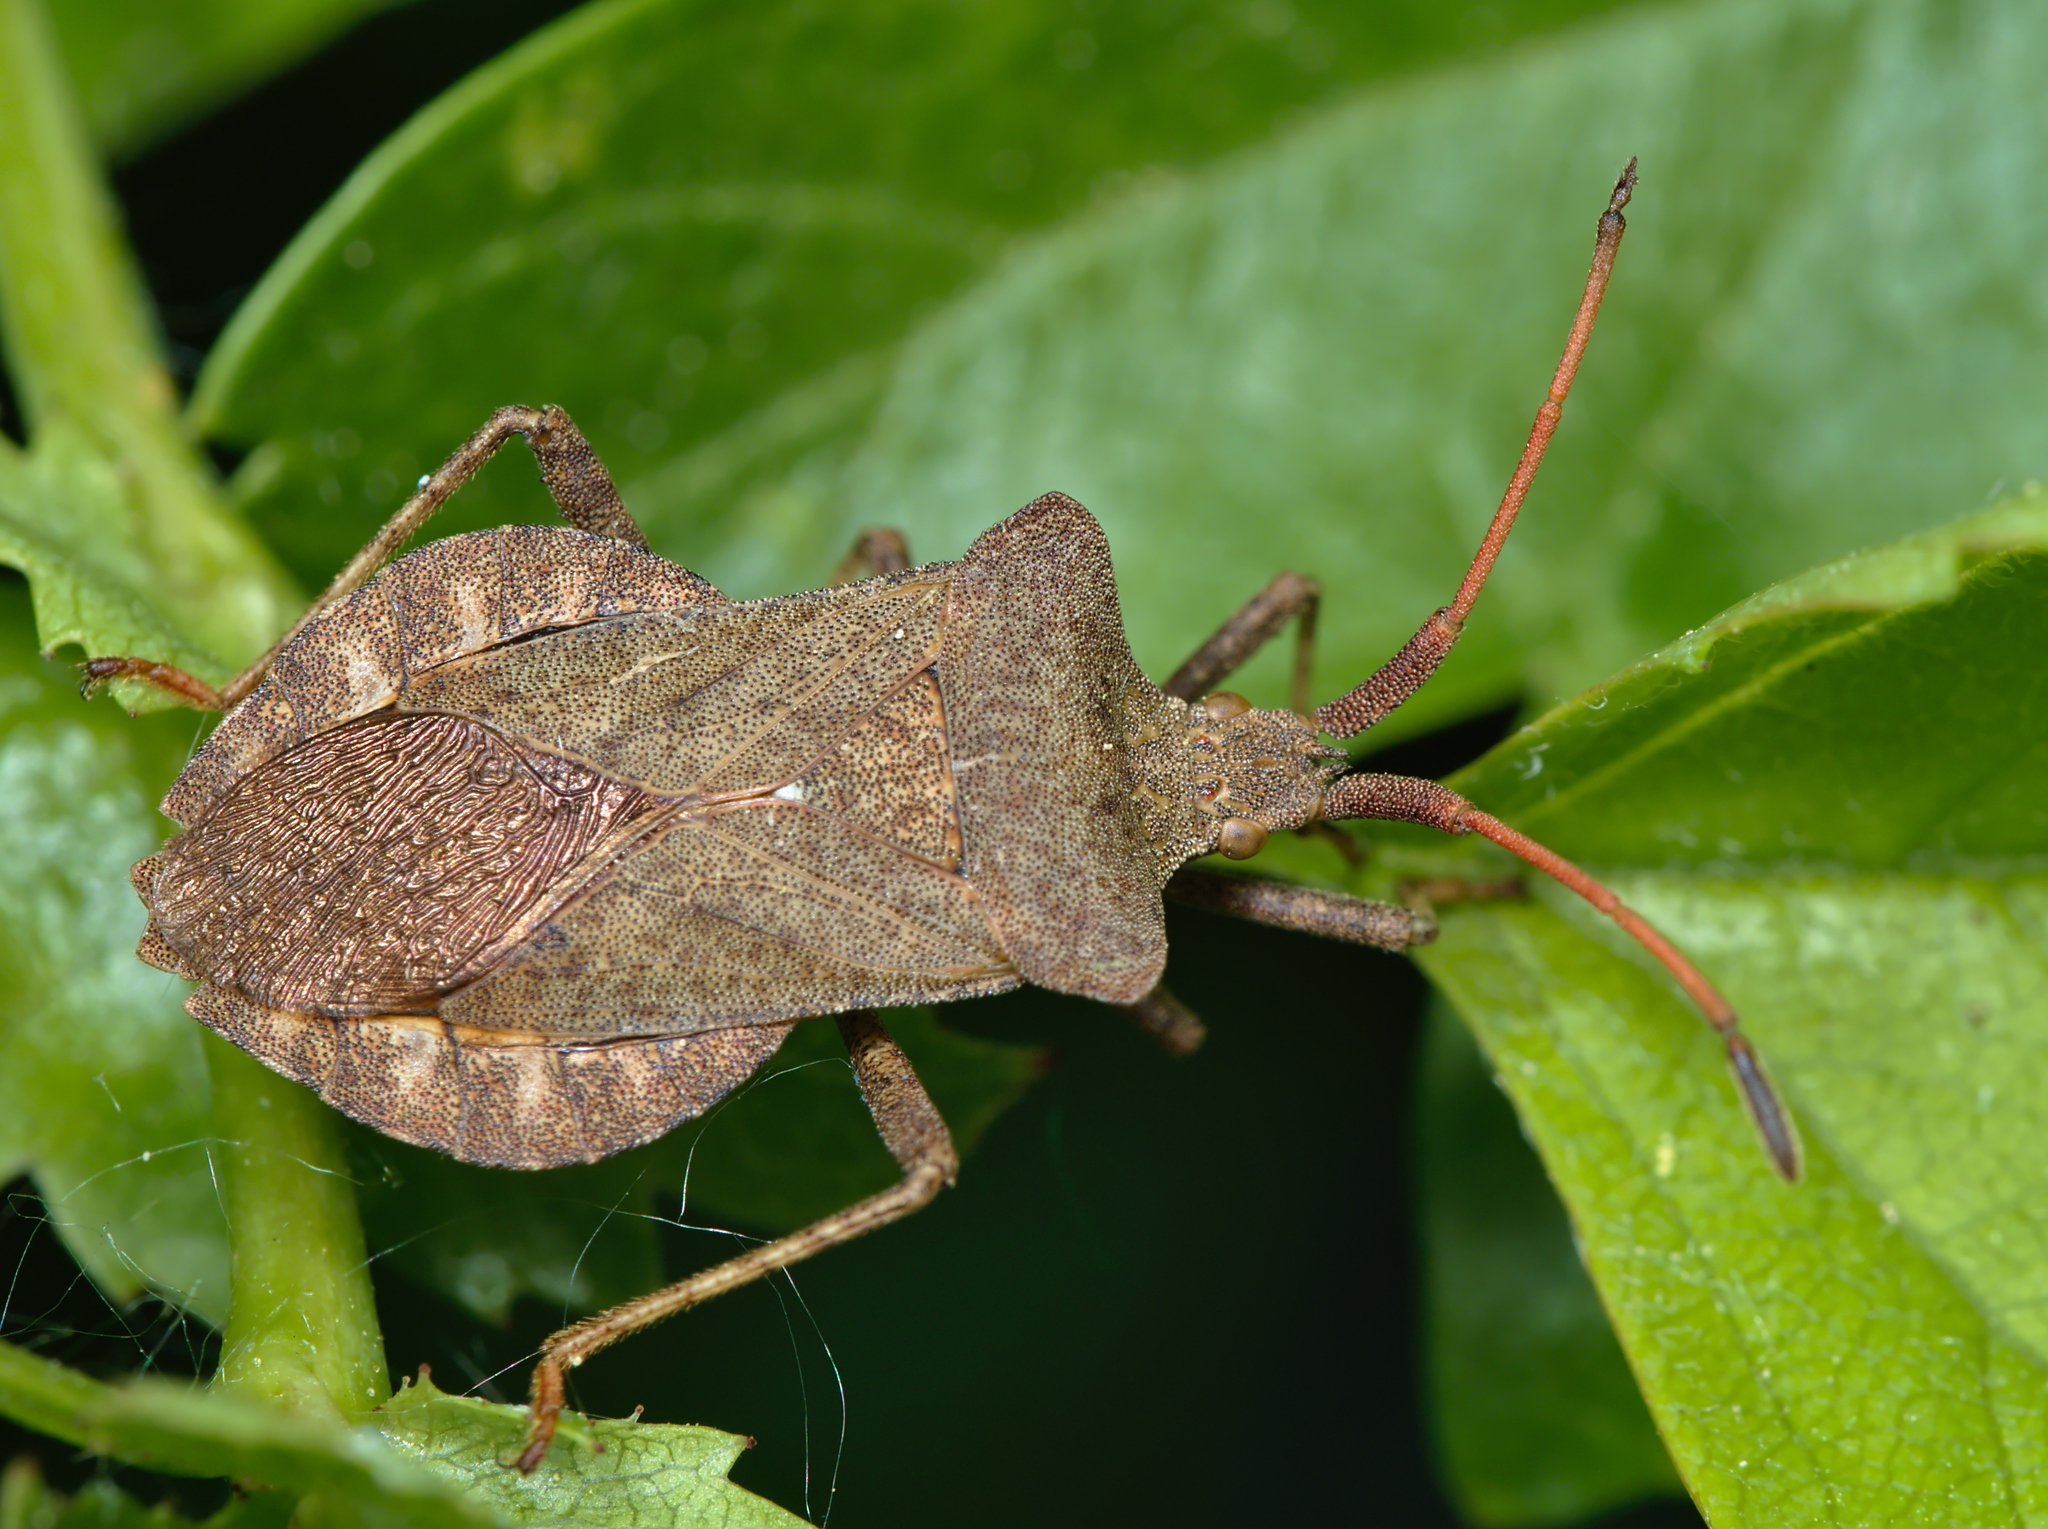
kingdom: Animalia
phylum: Arthropoda
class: Insecta
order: Hemiptera
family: Coreidae
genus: Coreus
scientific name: Coreus marginatus
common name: Dock bug
